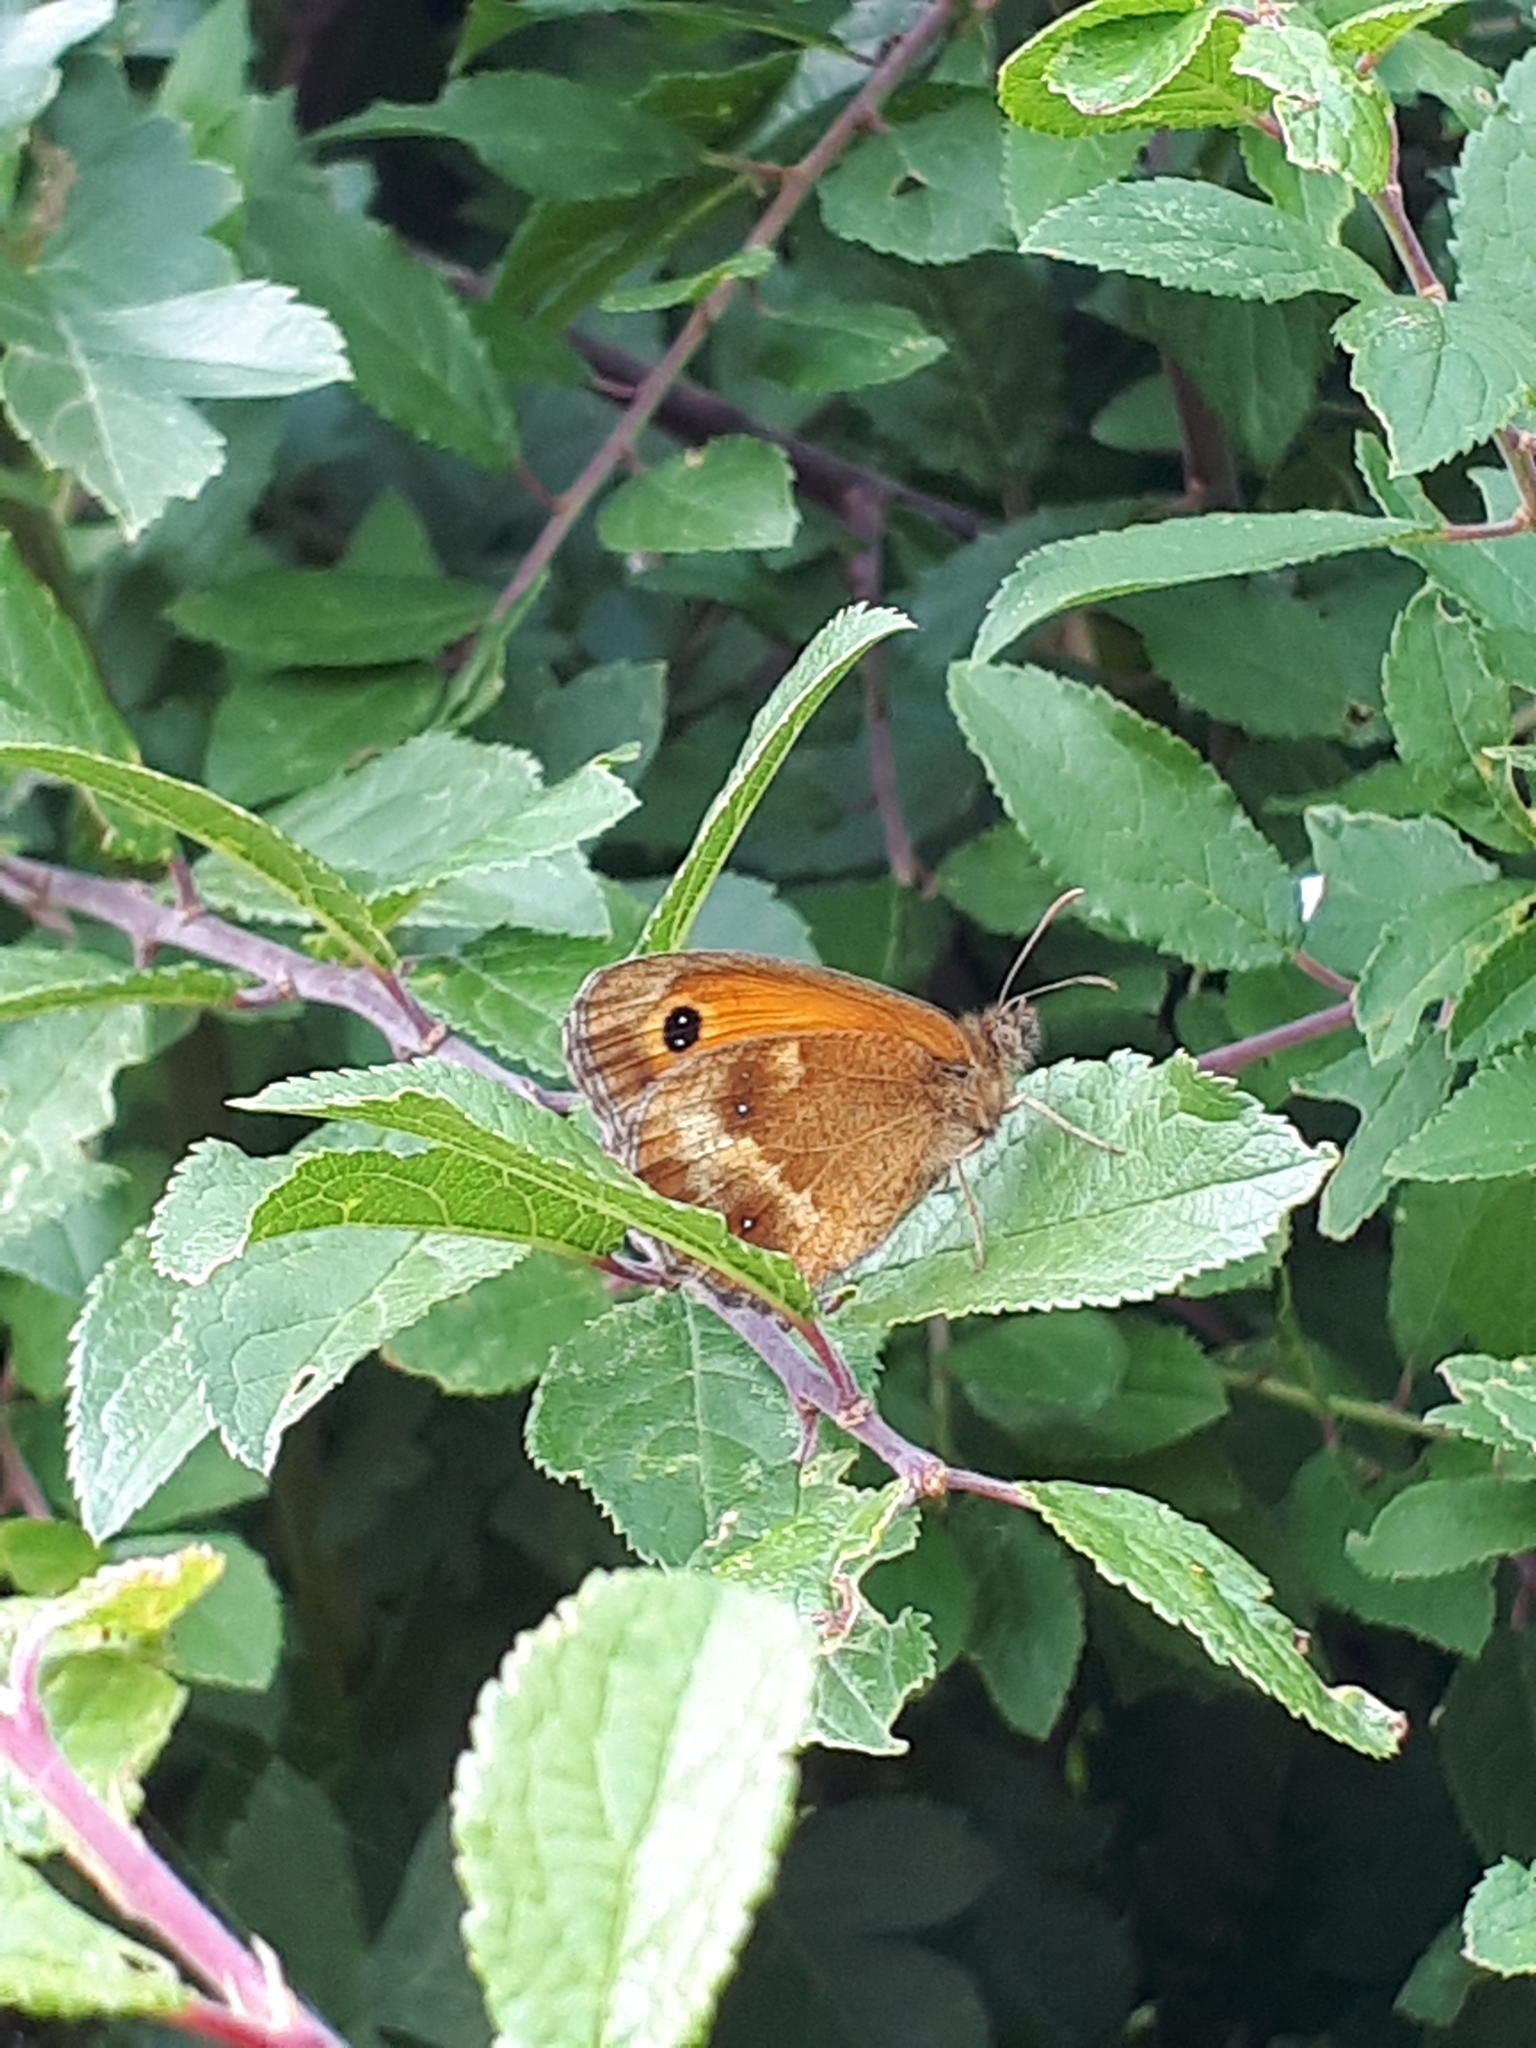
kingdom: Animalia
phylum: Arthropoda
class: Insecta
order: Lepidoptera
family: Nymphalidae
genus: Pyronia
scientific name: Pyronia tithonus
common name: Gatekeeper
